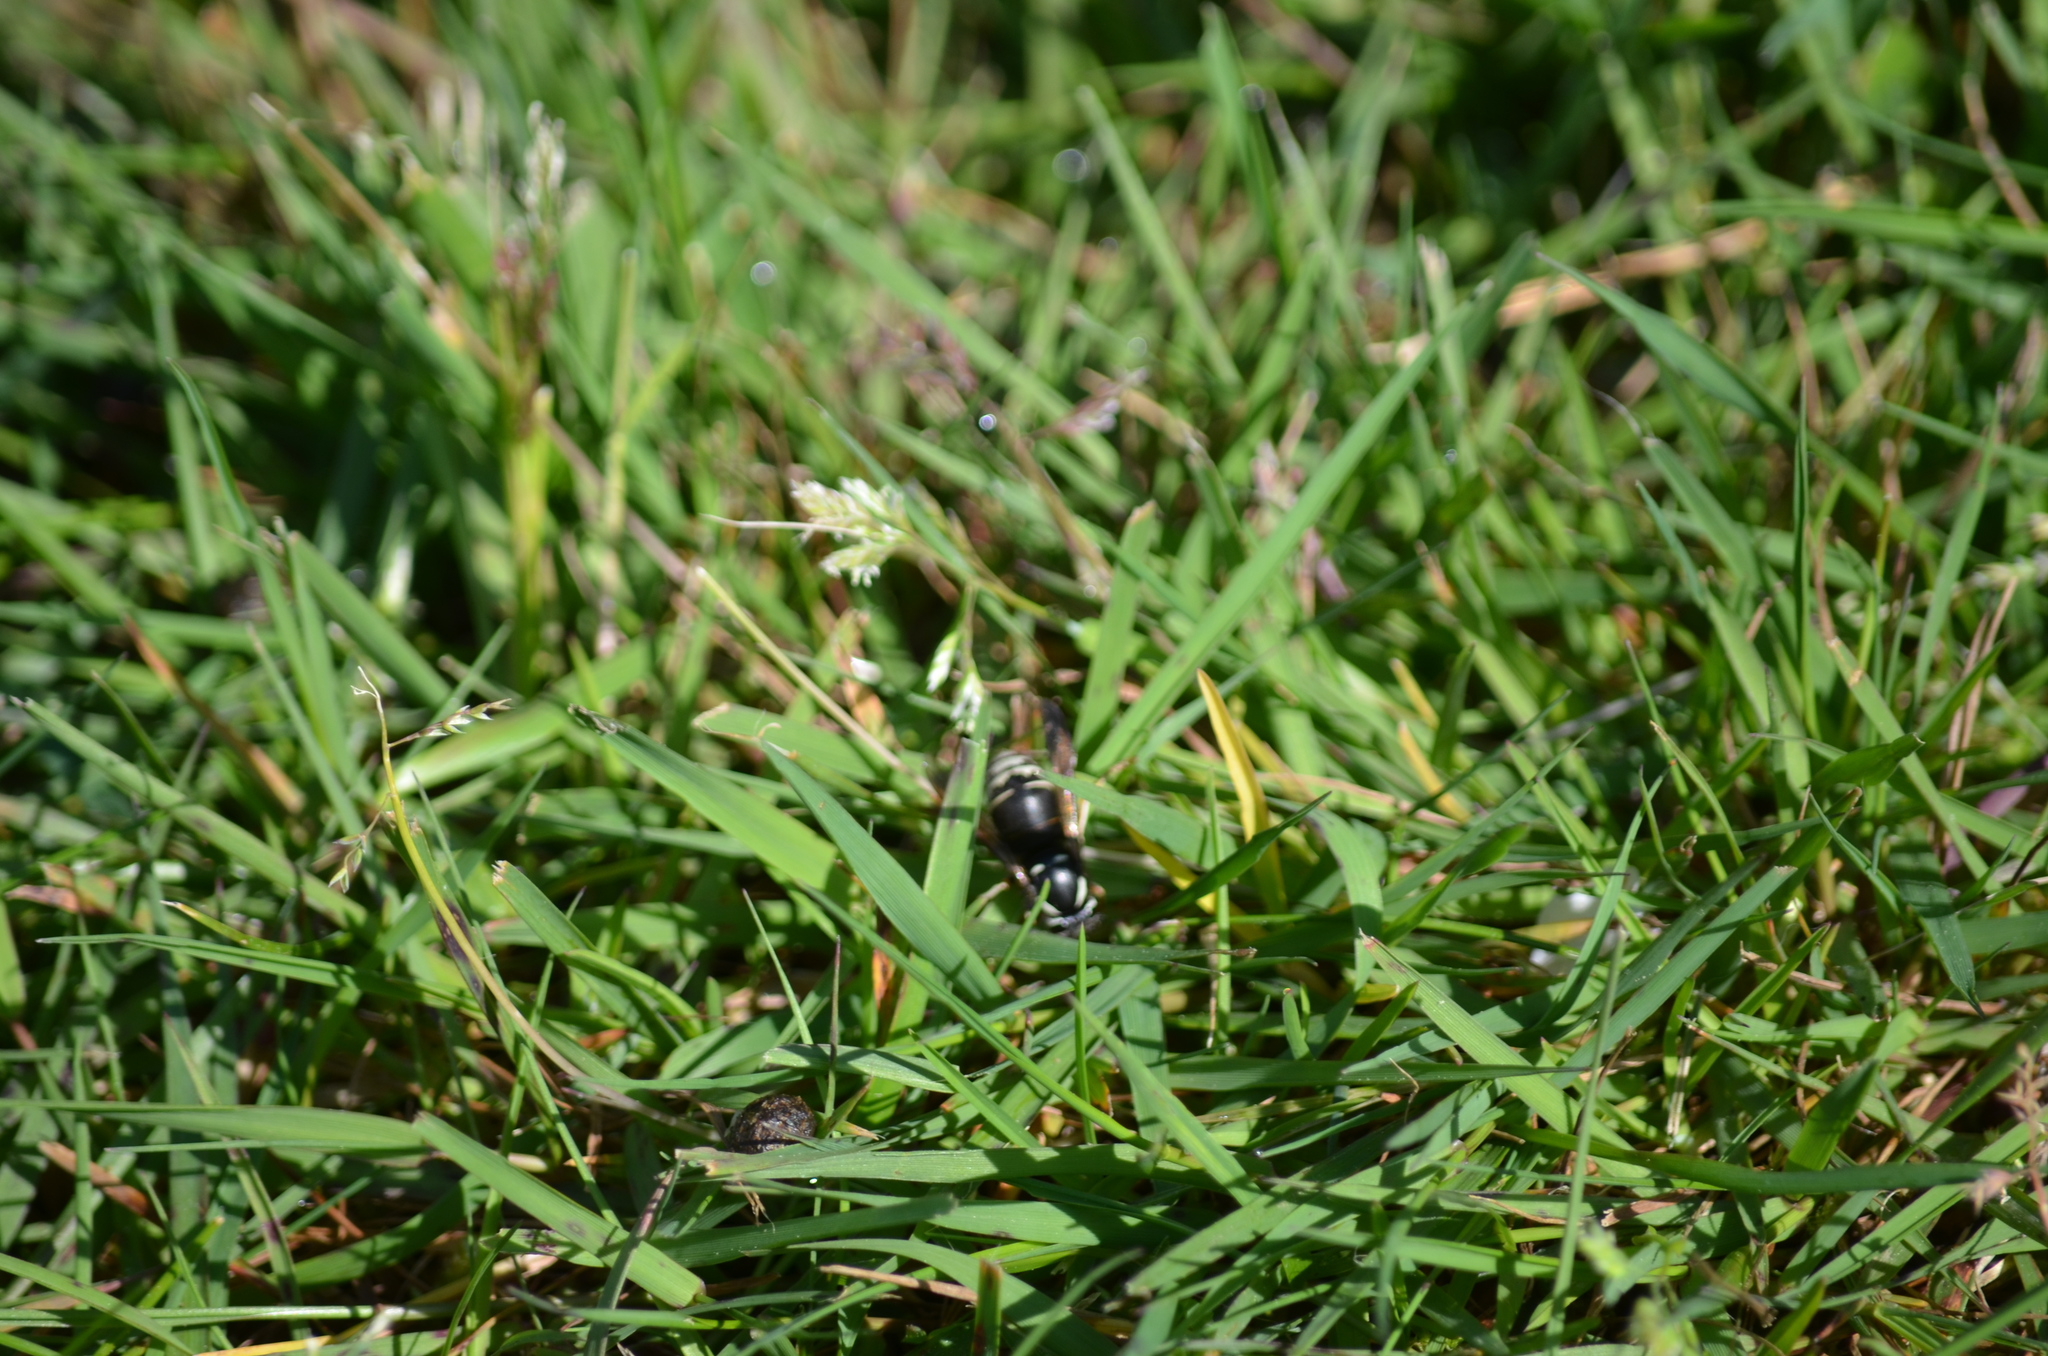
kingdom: Animalia
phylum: Arthropoda
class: Insecta
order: Hymenoptera
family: Vespidae
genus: Vespula
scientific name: Vespula consobrina
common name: Blackjacket
